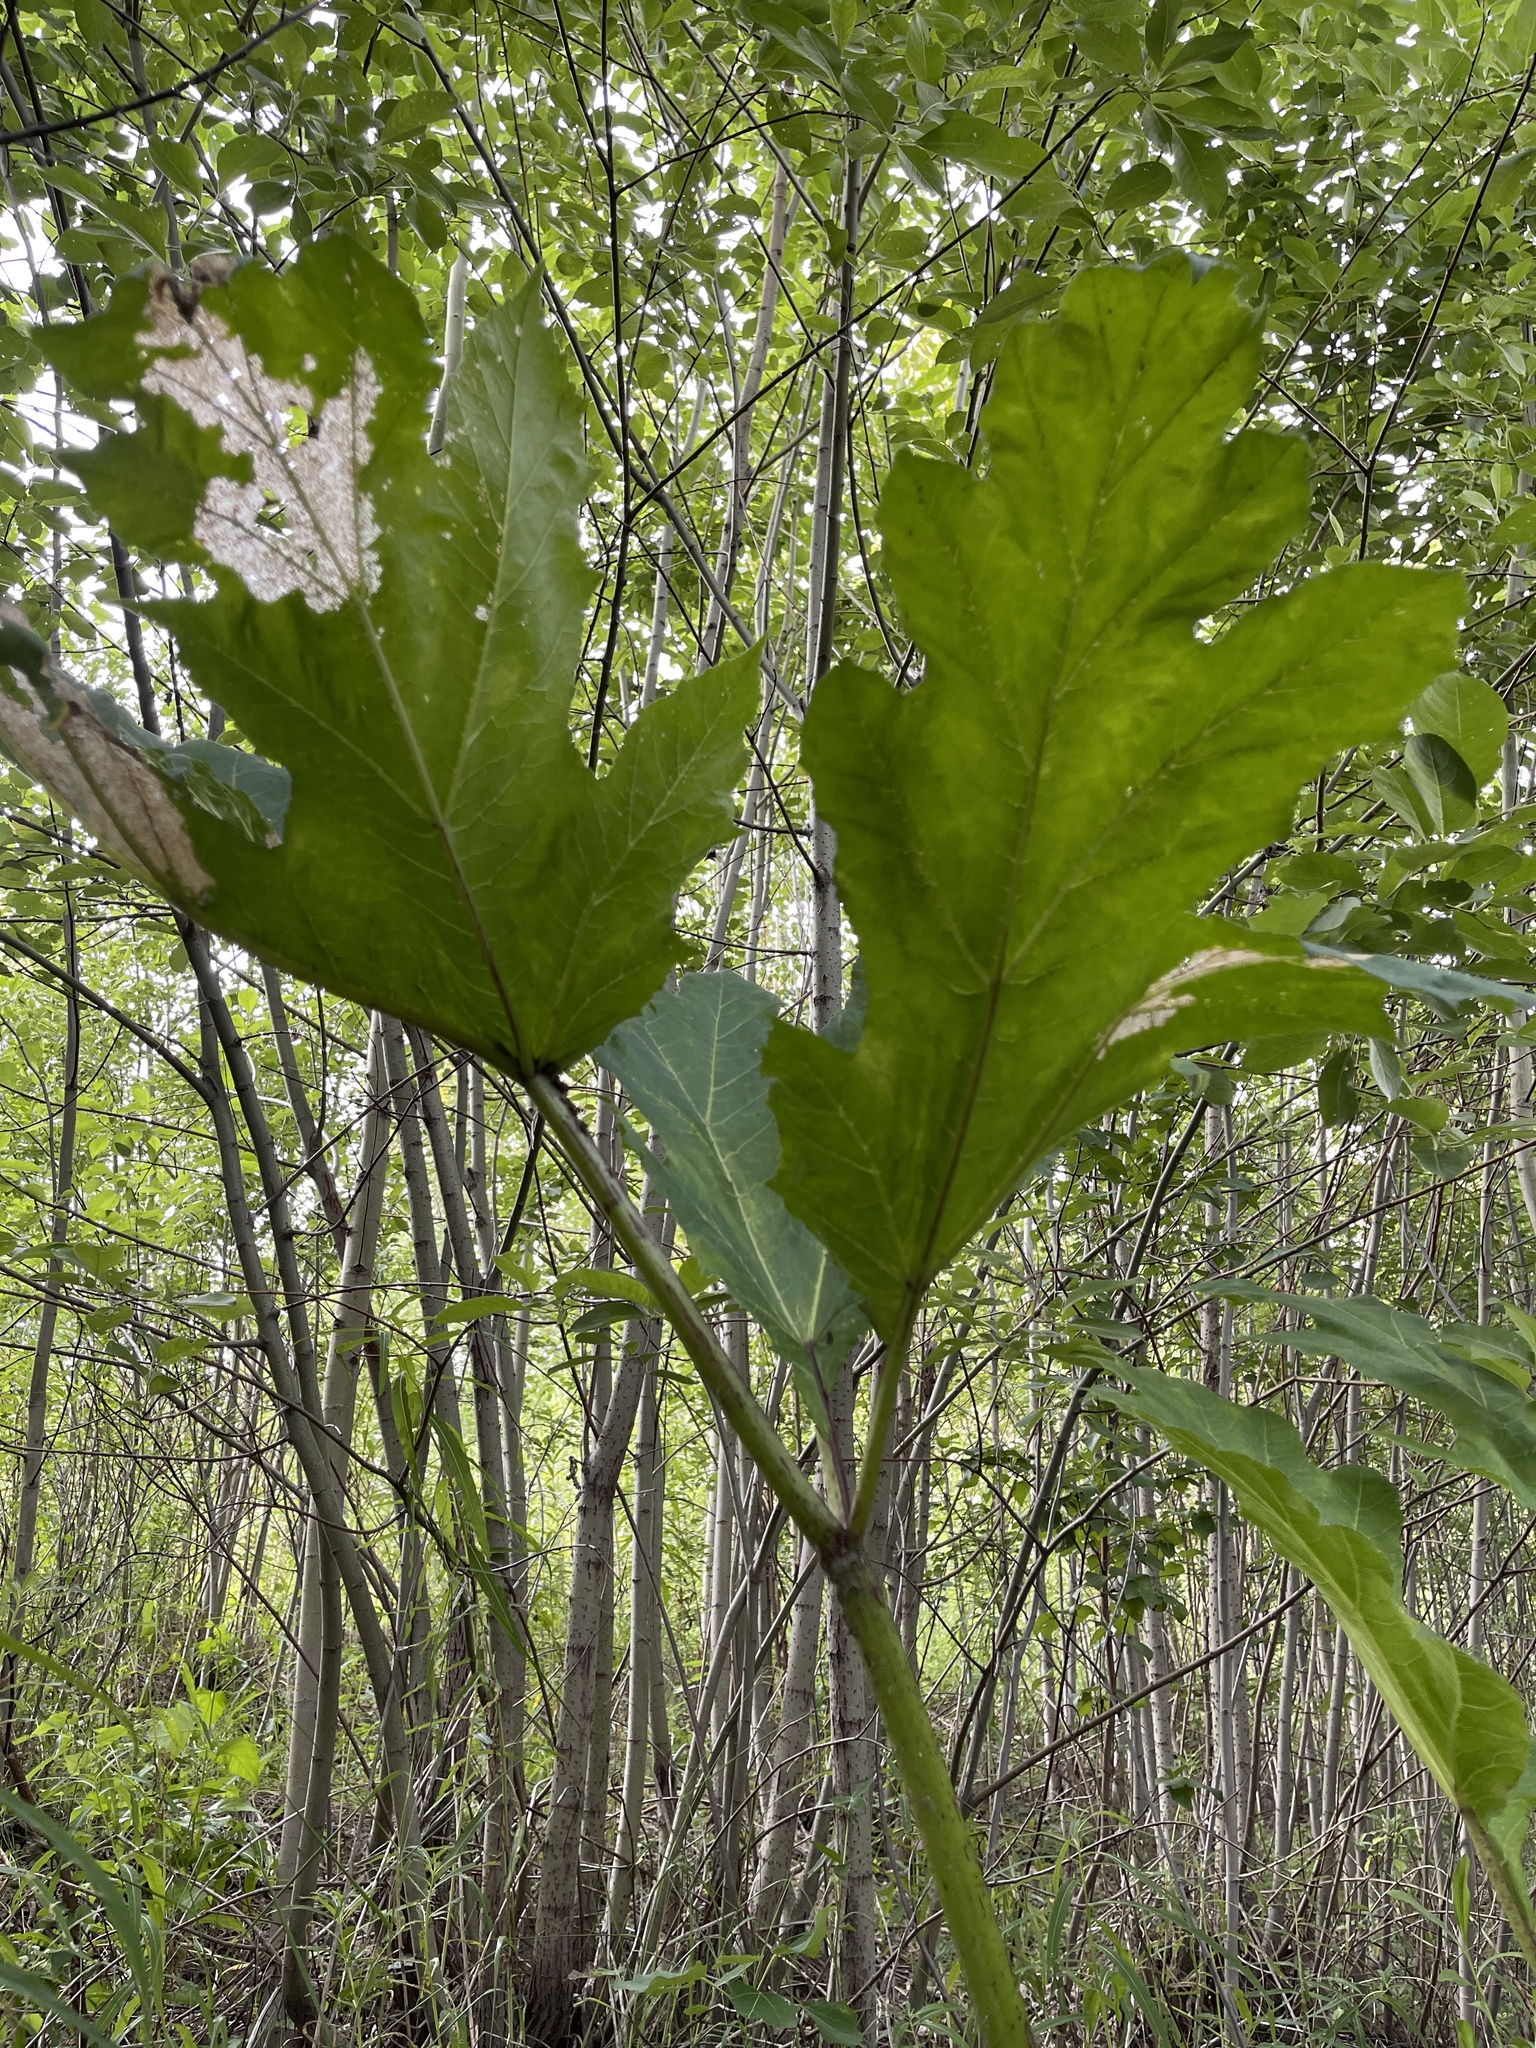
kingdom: Plantae
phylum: Tracheophyta
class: Magnoliopsida
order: Apiales
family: Apiaceae
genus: Heracleum
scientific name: Heracleum sosnowskyi
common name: Sosnowsky's hogweed
